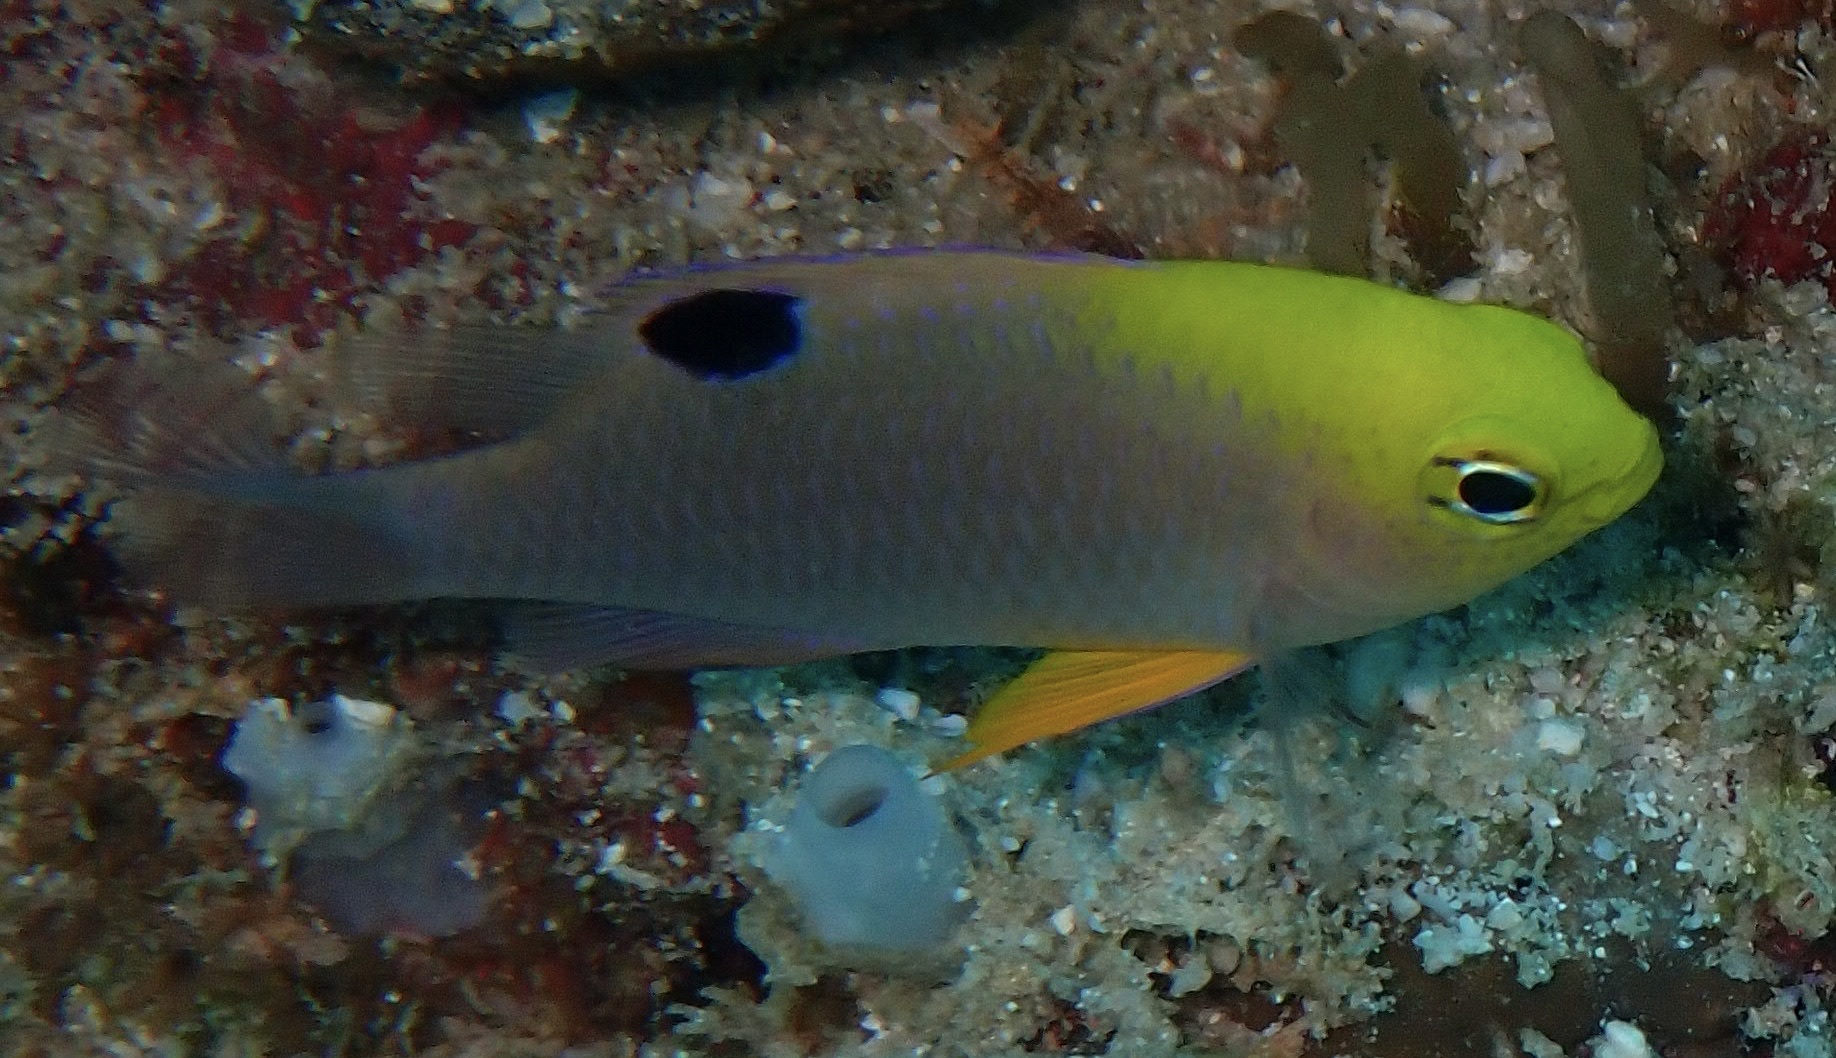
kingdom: Animalia
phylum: Chordata
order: Perciformes
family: Pomacentridae
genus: Chrysiptera
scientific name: Chrysiptera talboti
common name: Talbot's demoiselle
